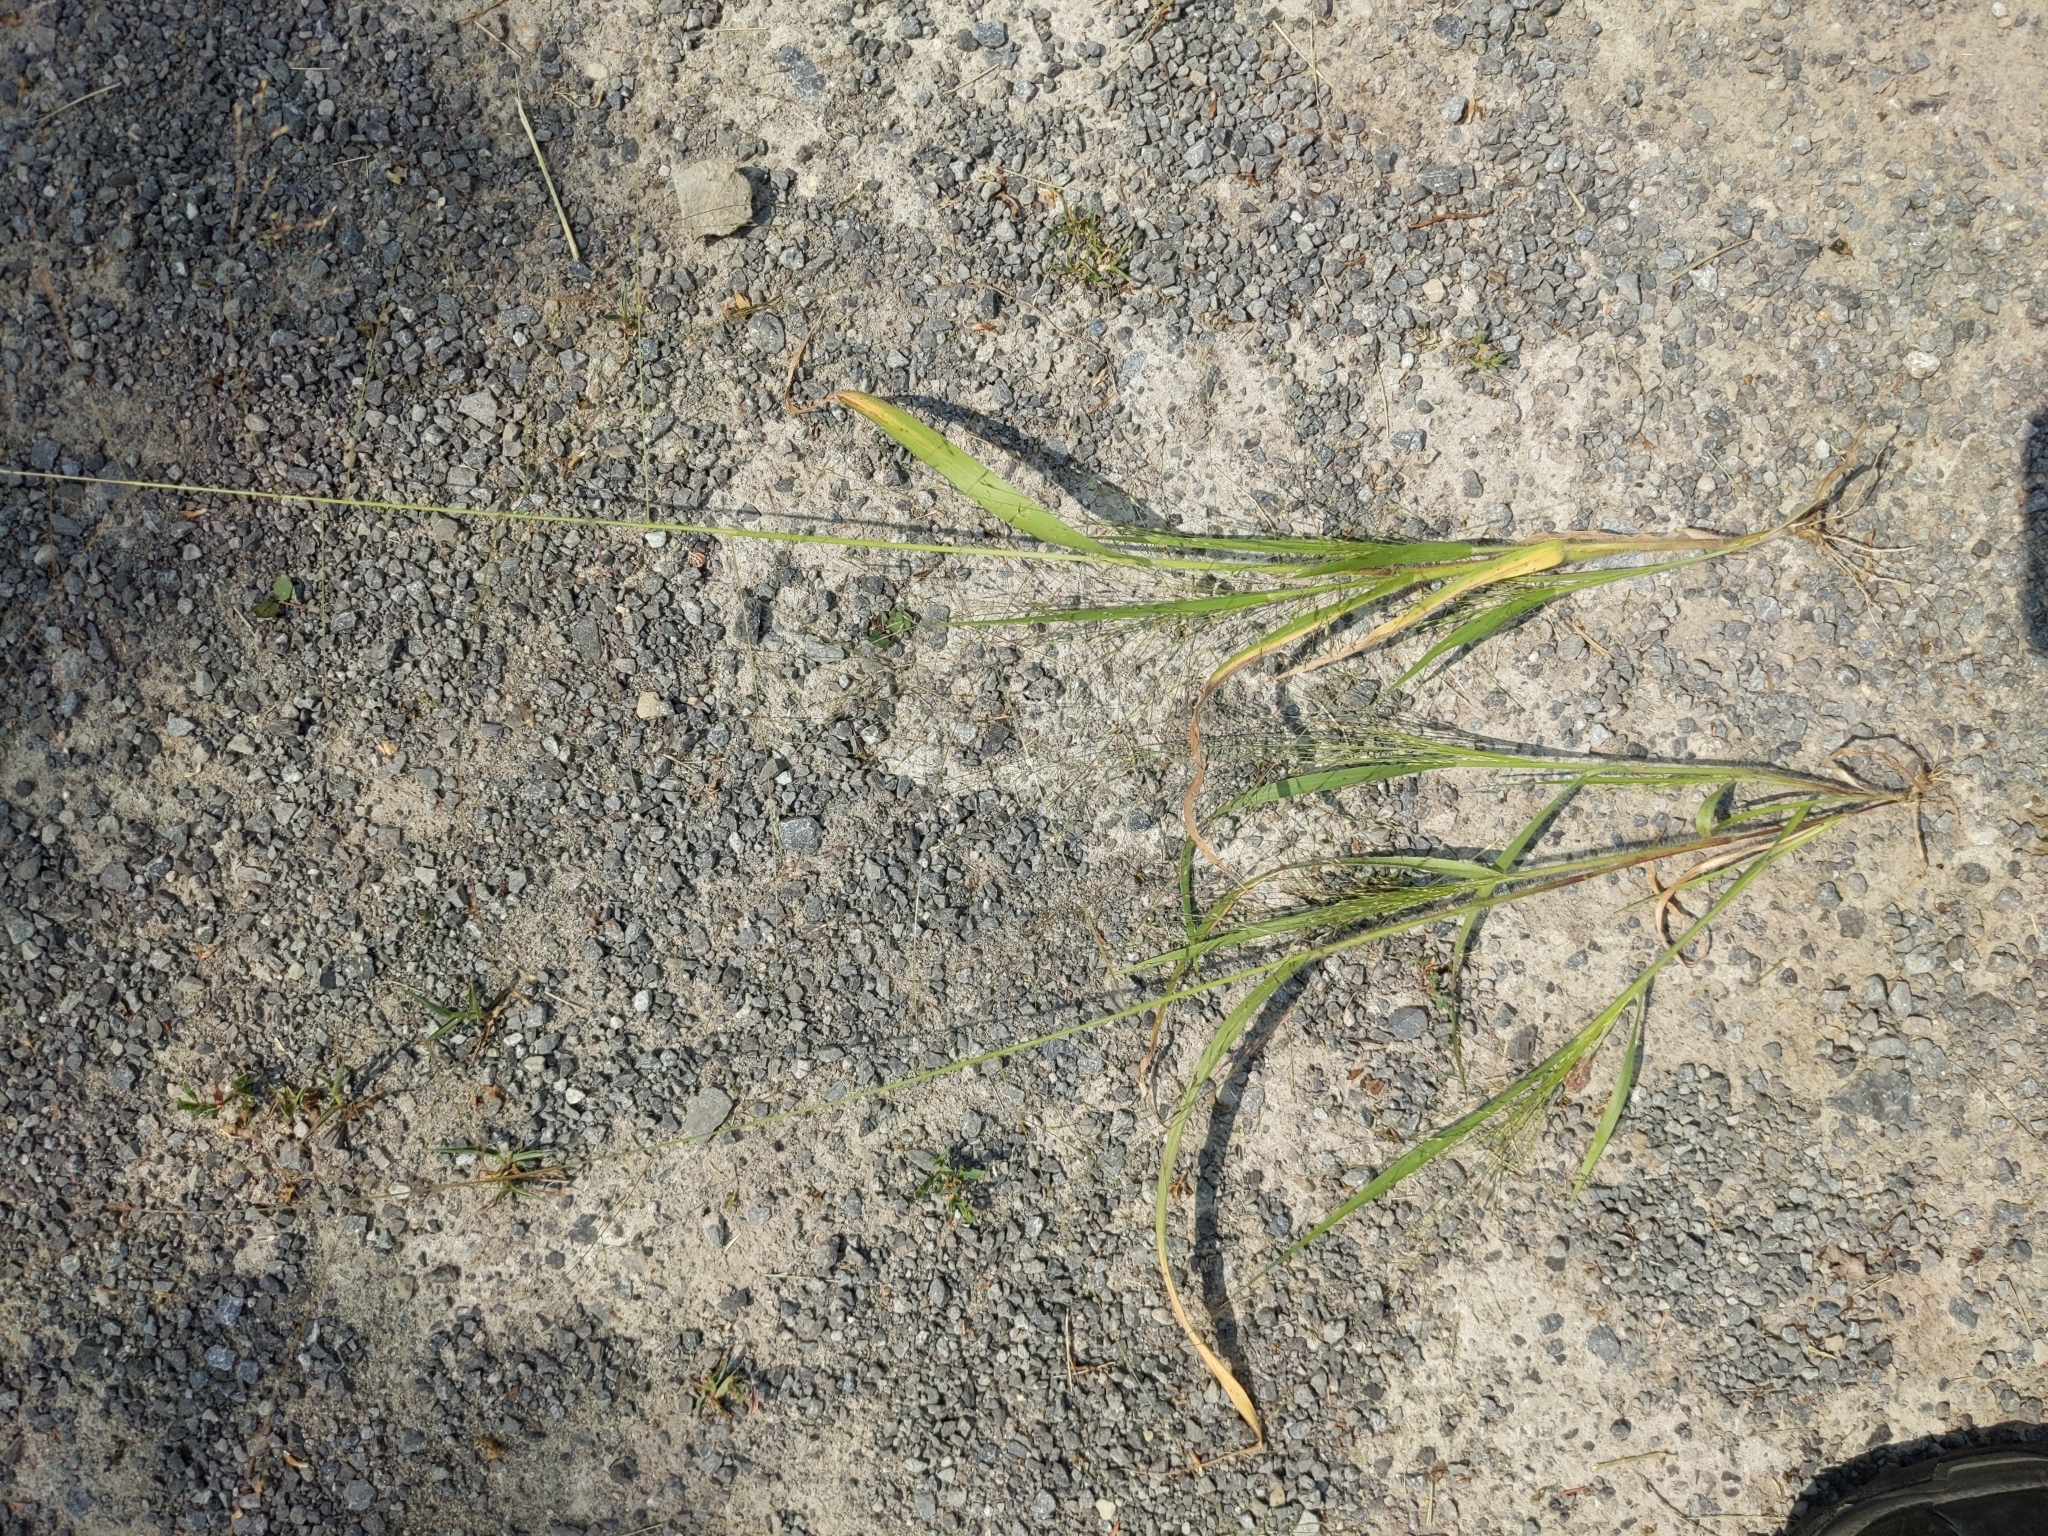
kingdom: Plantae
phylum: Tracheophyta
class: Liliopsida
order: Poales
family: Poaceae
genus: Panicum
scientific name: Panicum capillare
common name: Witch-grass
